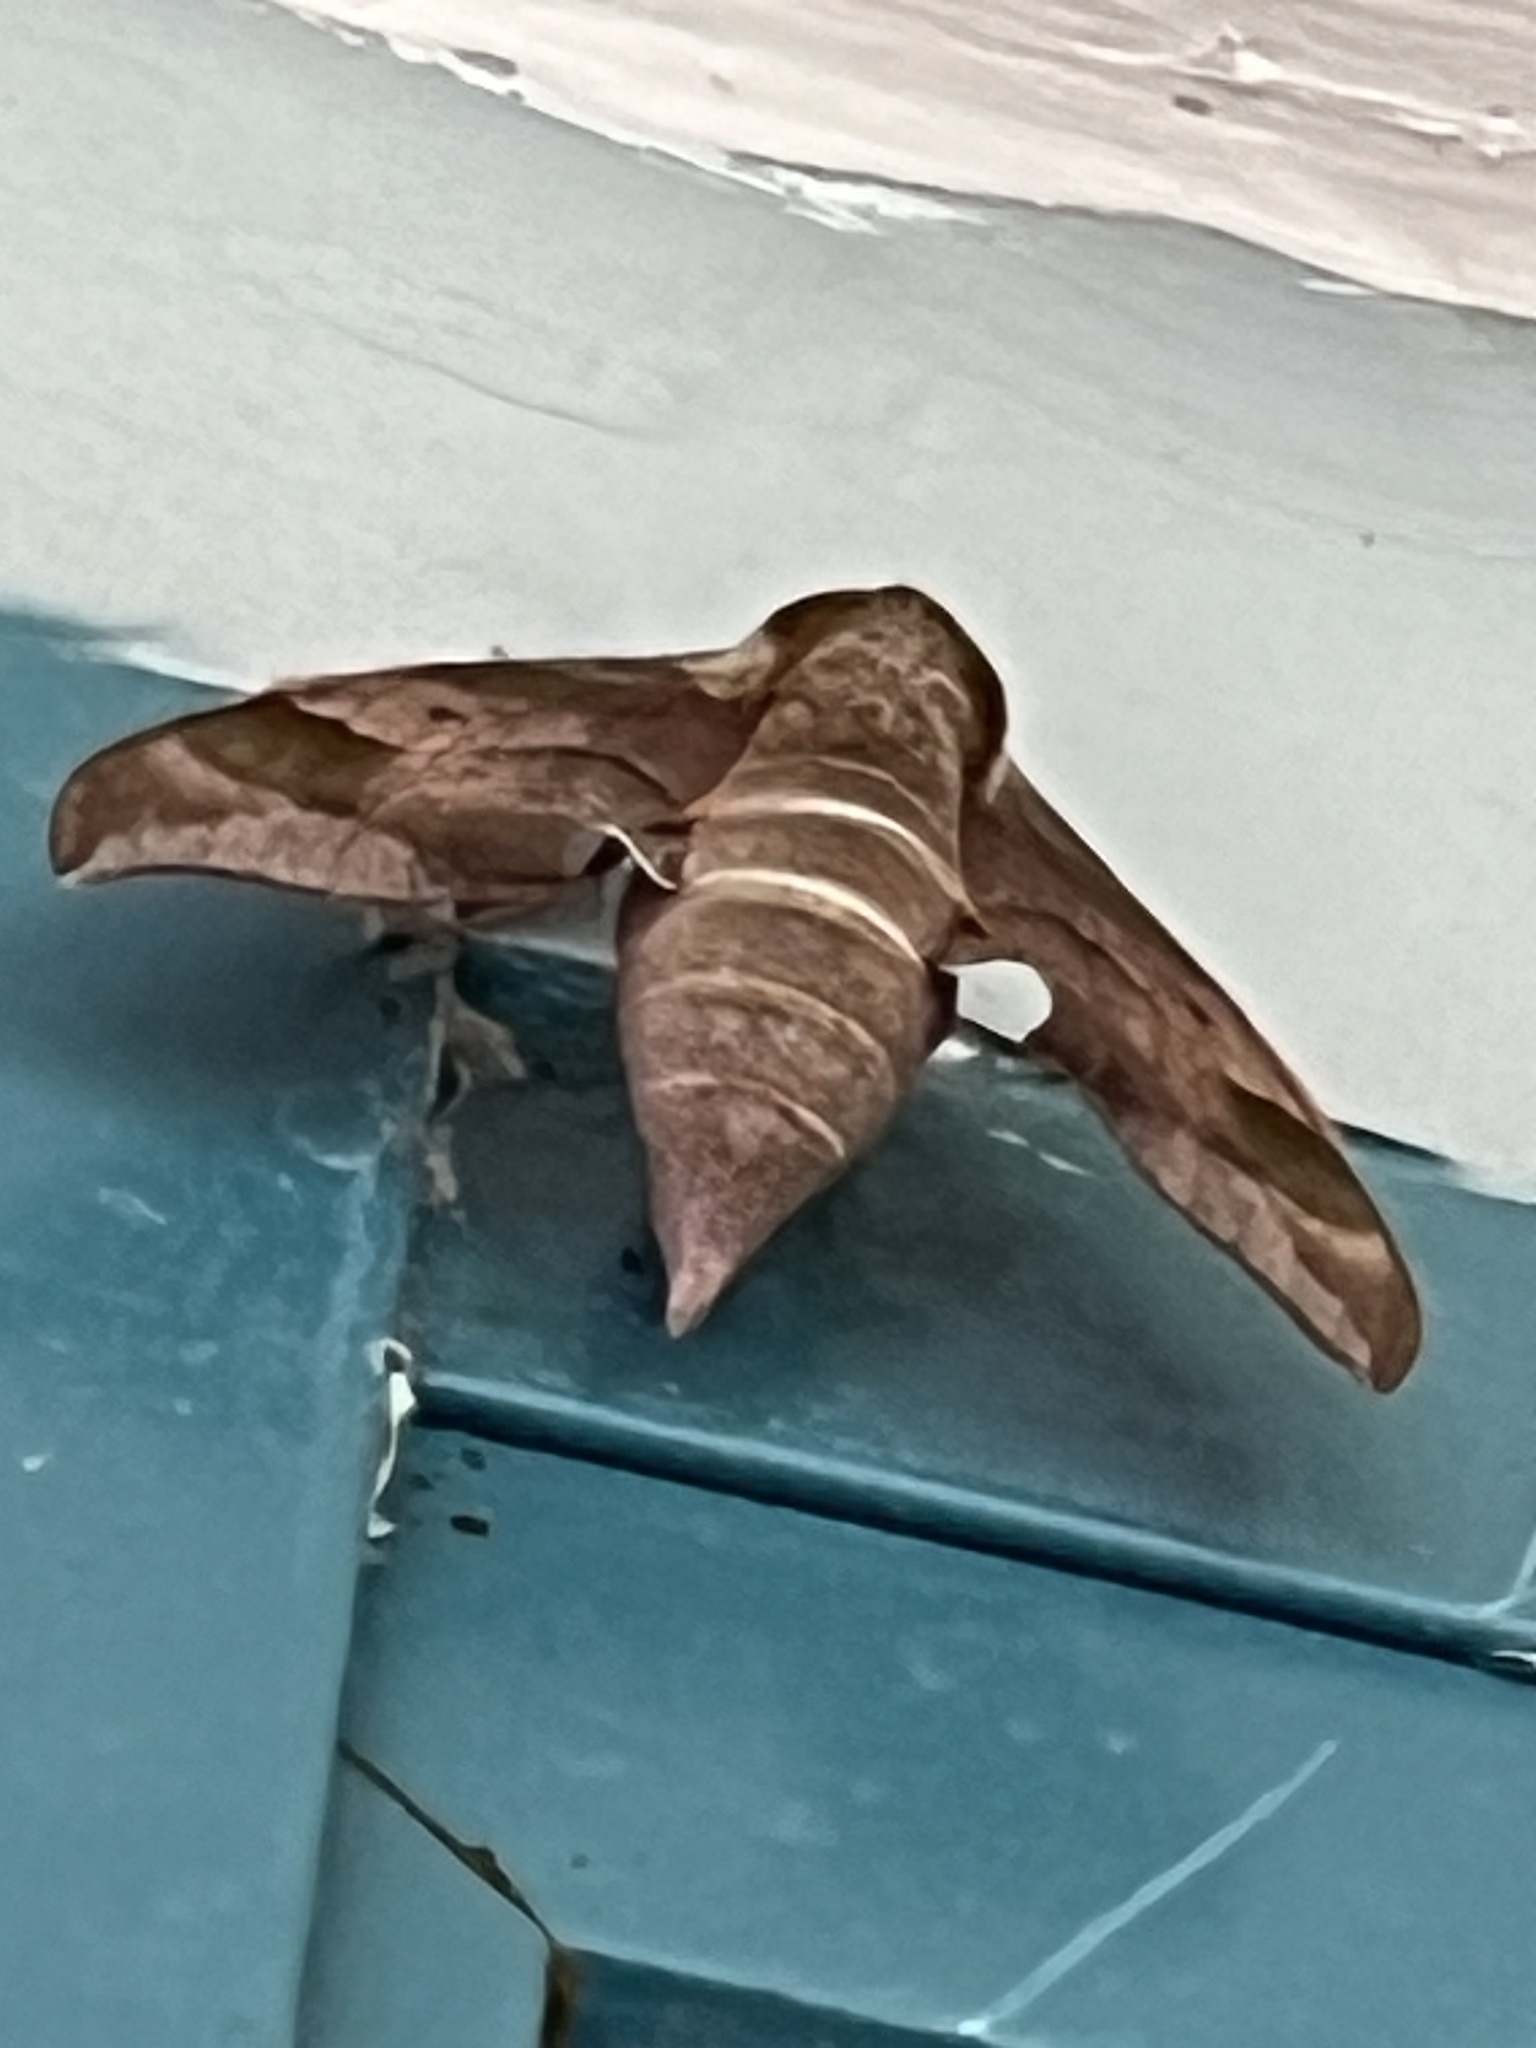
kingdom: Animalia
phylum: Arthropoda
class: Insecta
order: Lepidoptera
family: Sphingidae
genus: Darapsa
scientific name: Darapsa myron
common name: Hog sphinx
